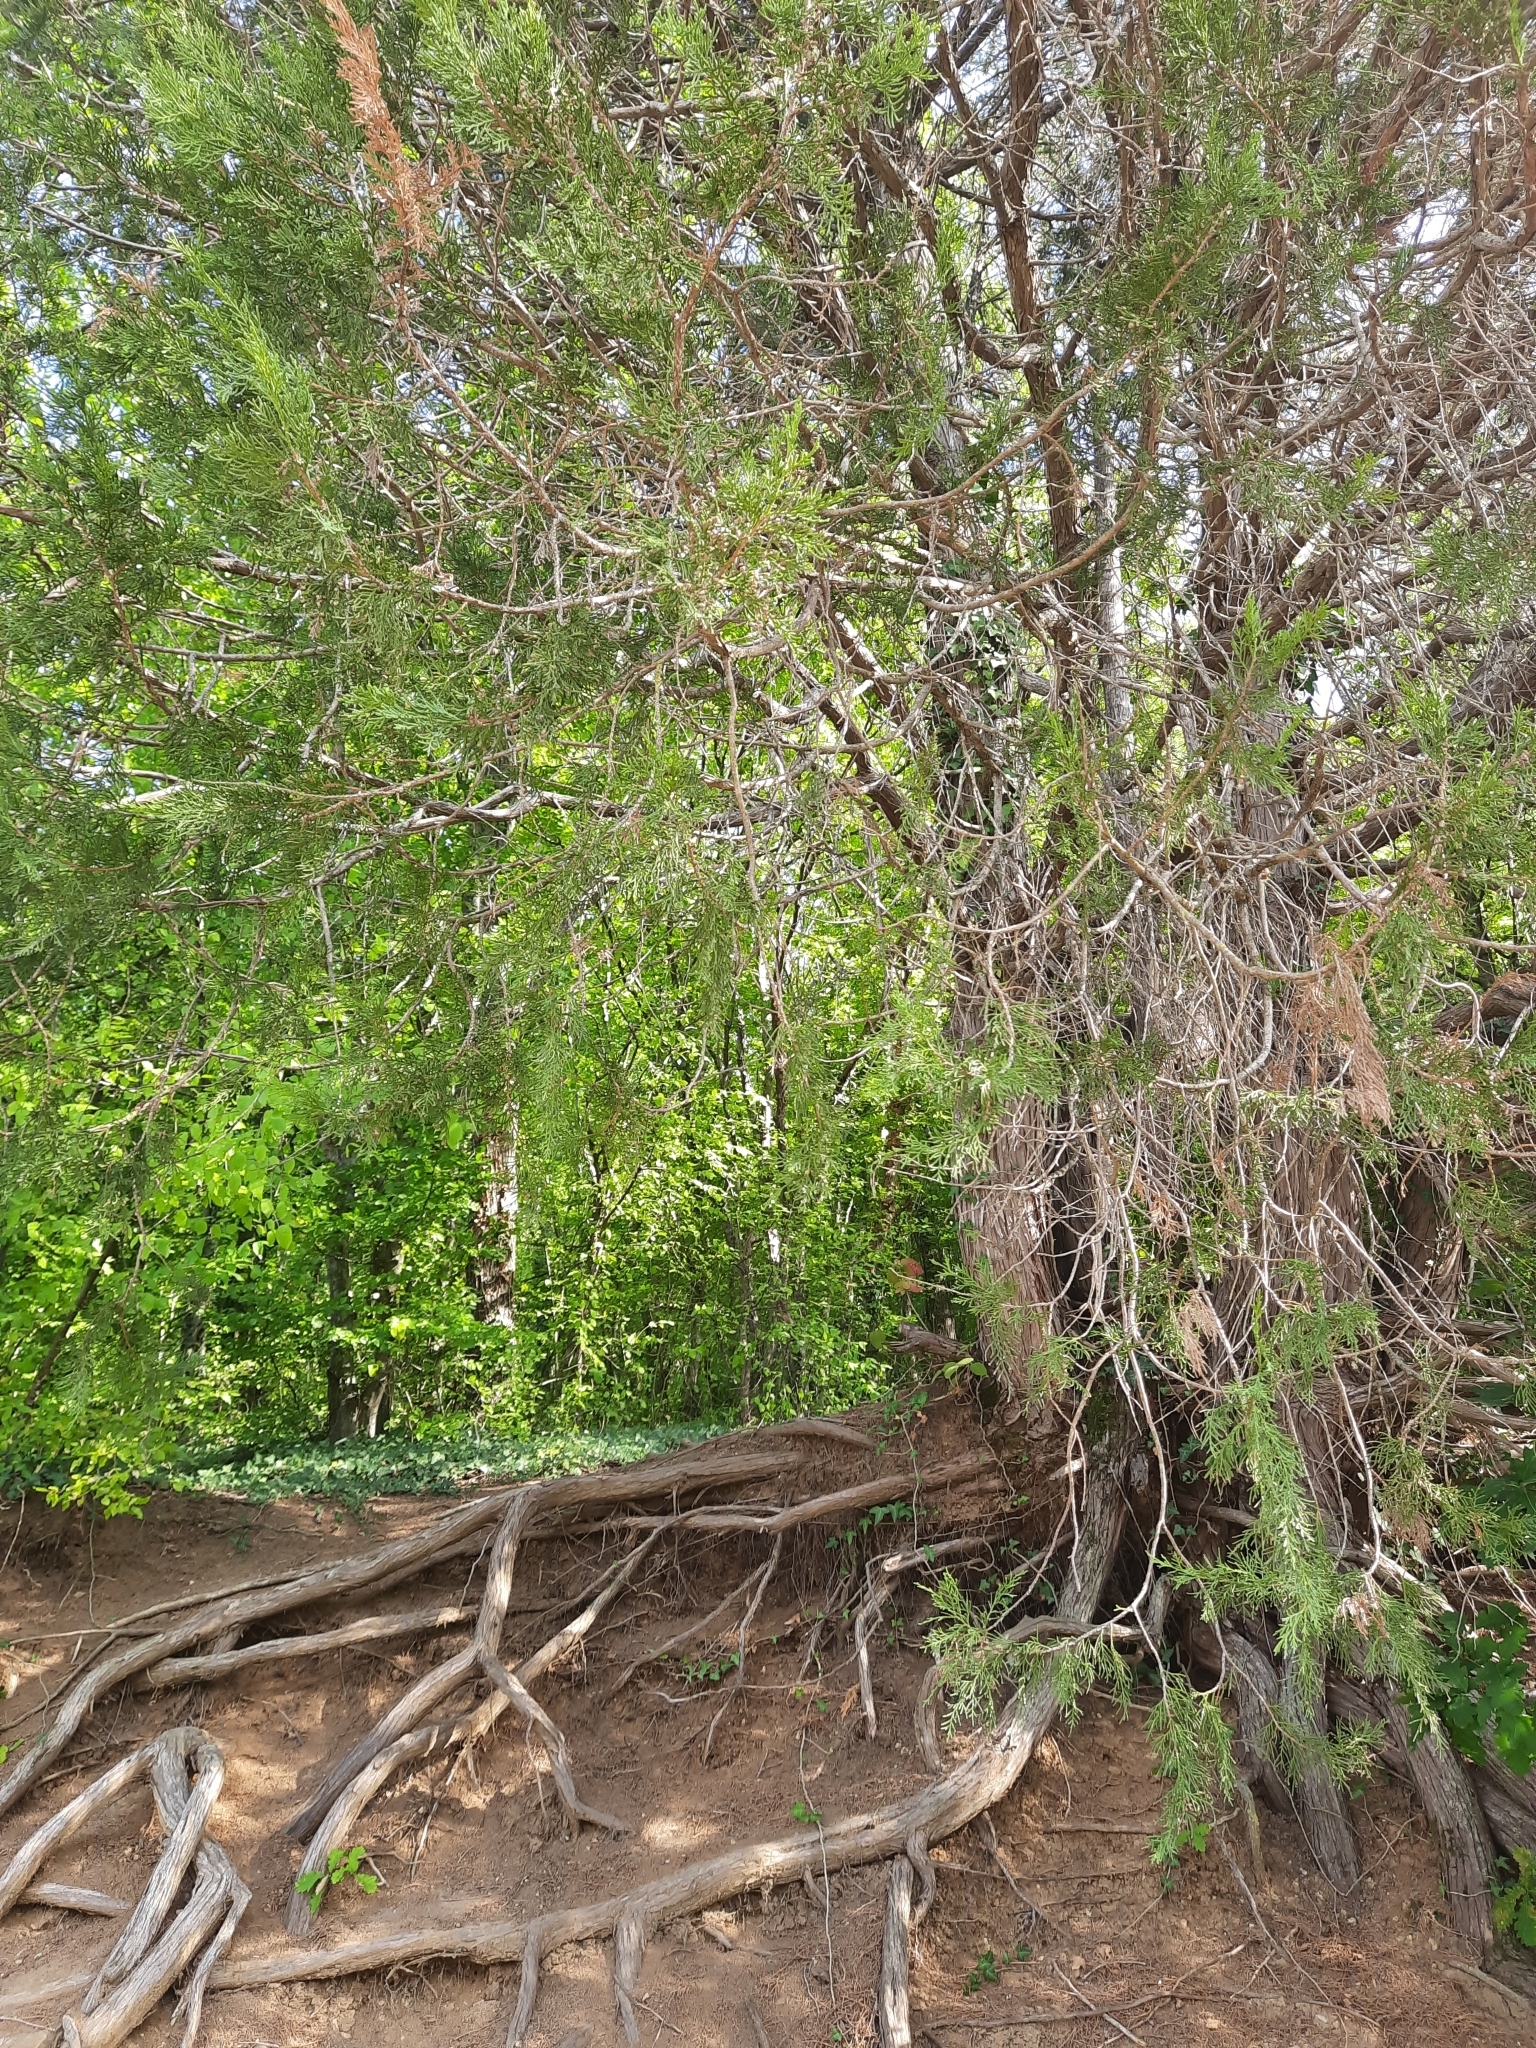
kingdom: Plantae
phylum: Tracheophyta
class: Pinopsida
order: Pinales
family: Cupressaceae
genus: Juniperus
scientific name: Juniperus excelsa
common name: Crimean juniper
